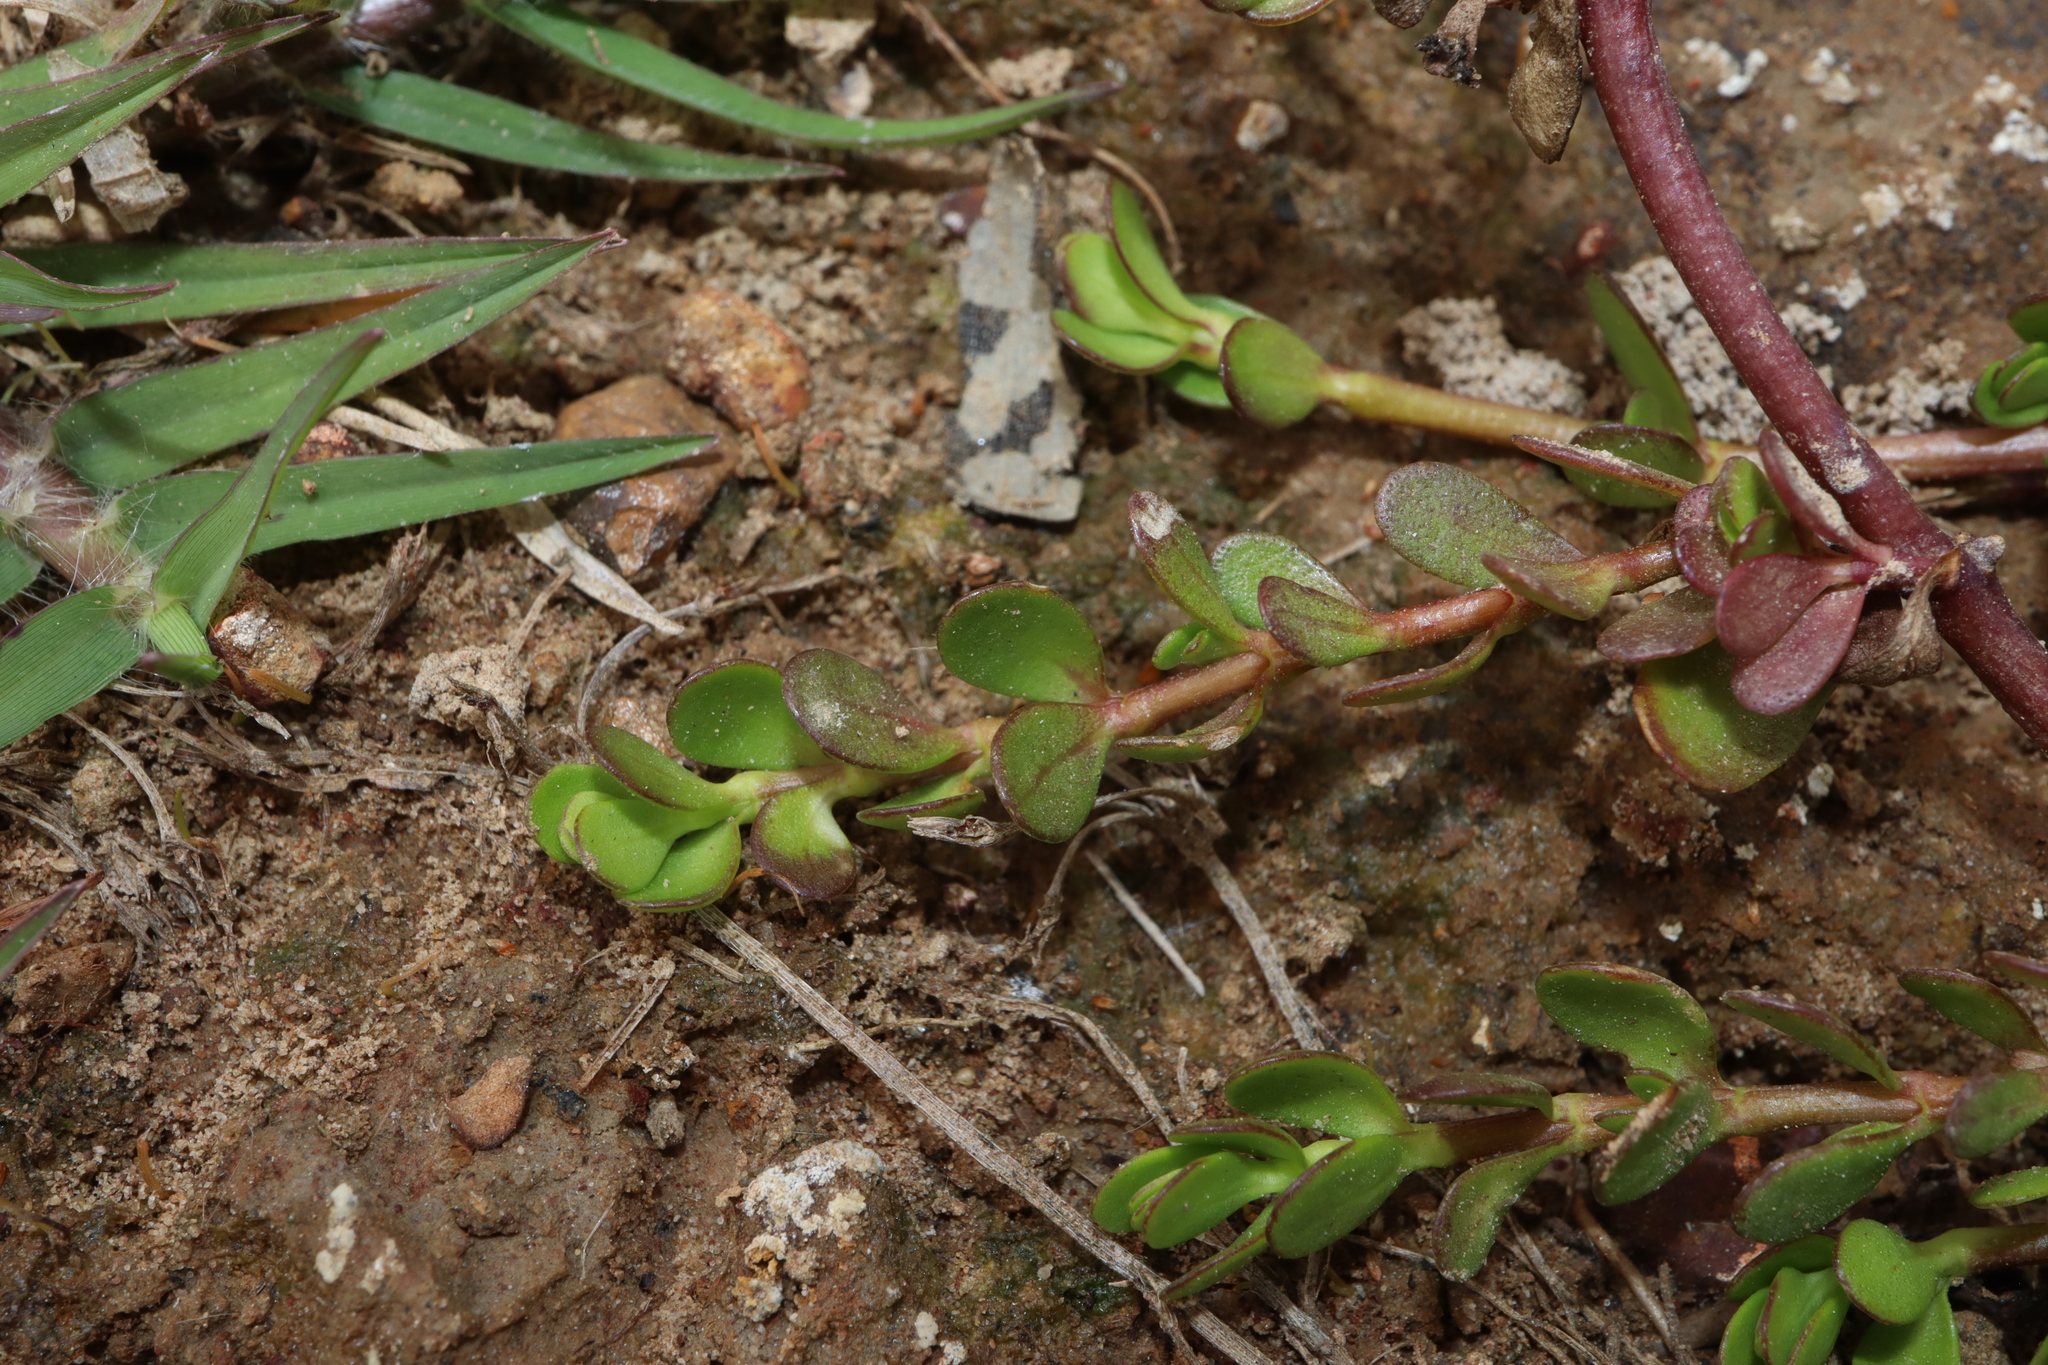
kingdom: Plantae
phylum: Tracheophyta
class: Magnoliopsida
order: Lamiales
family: Plantaginaceae
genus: Bacopa
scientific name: Bacopa monnieri
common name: Indian-pennywort
